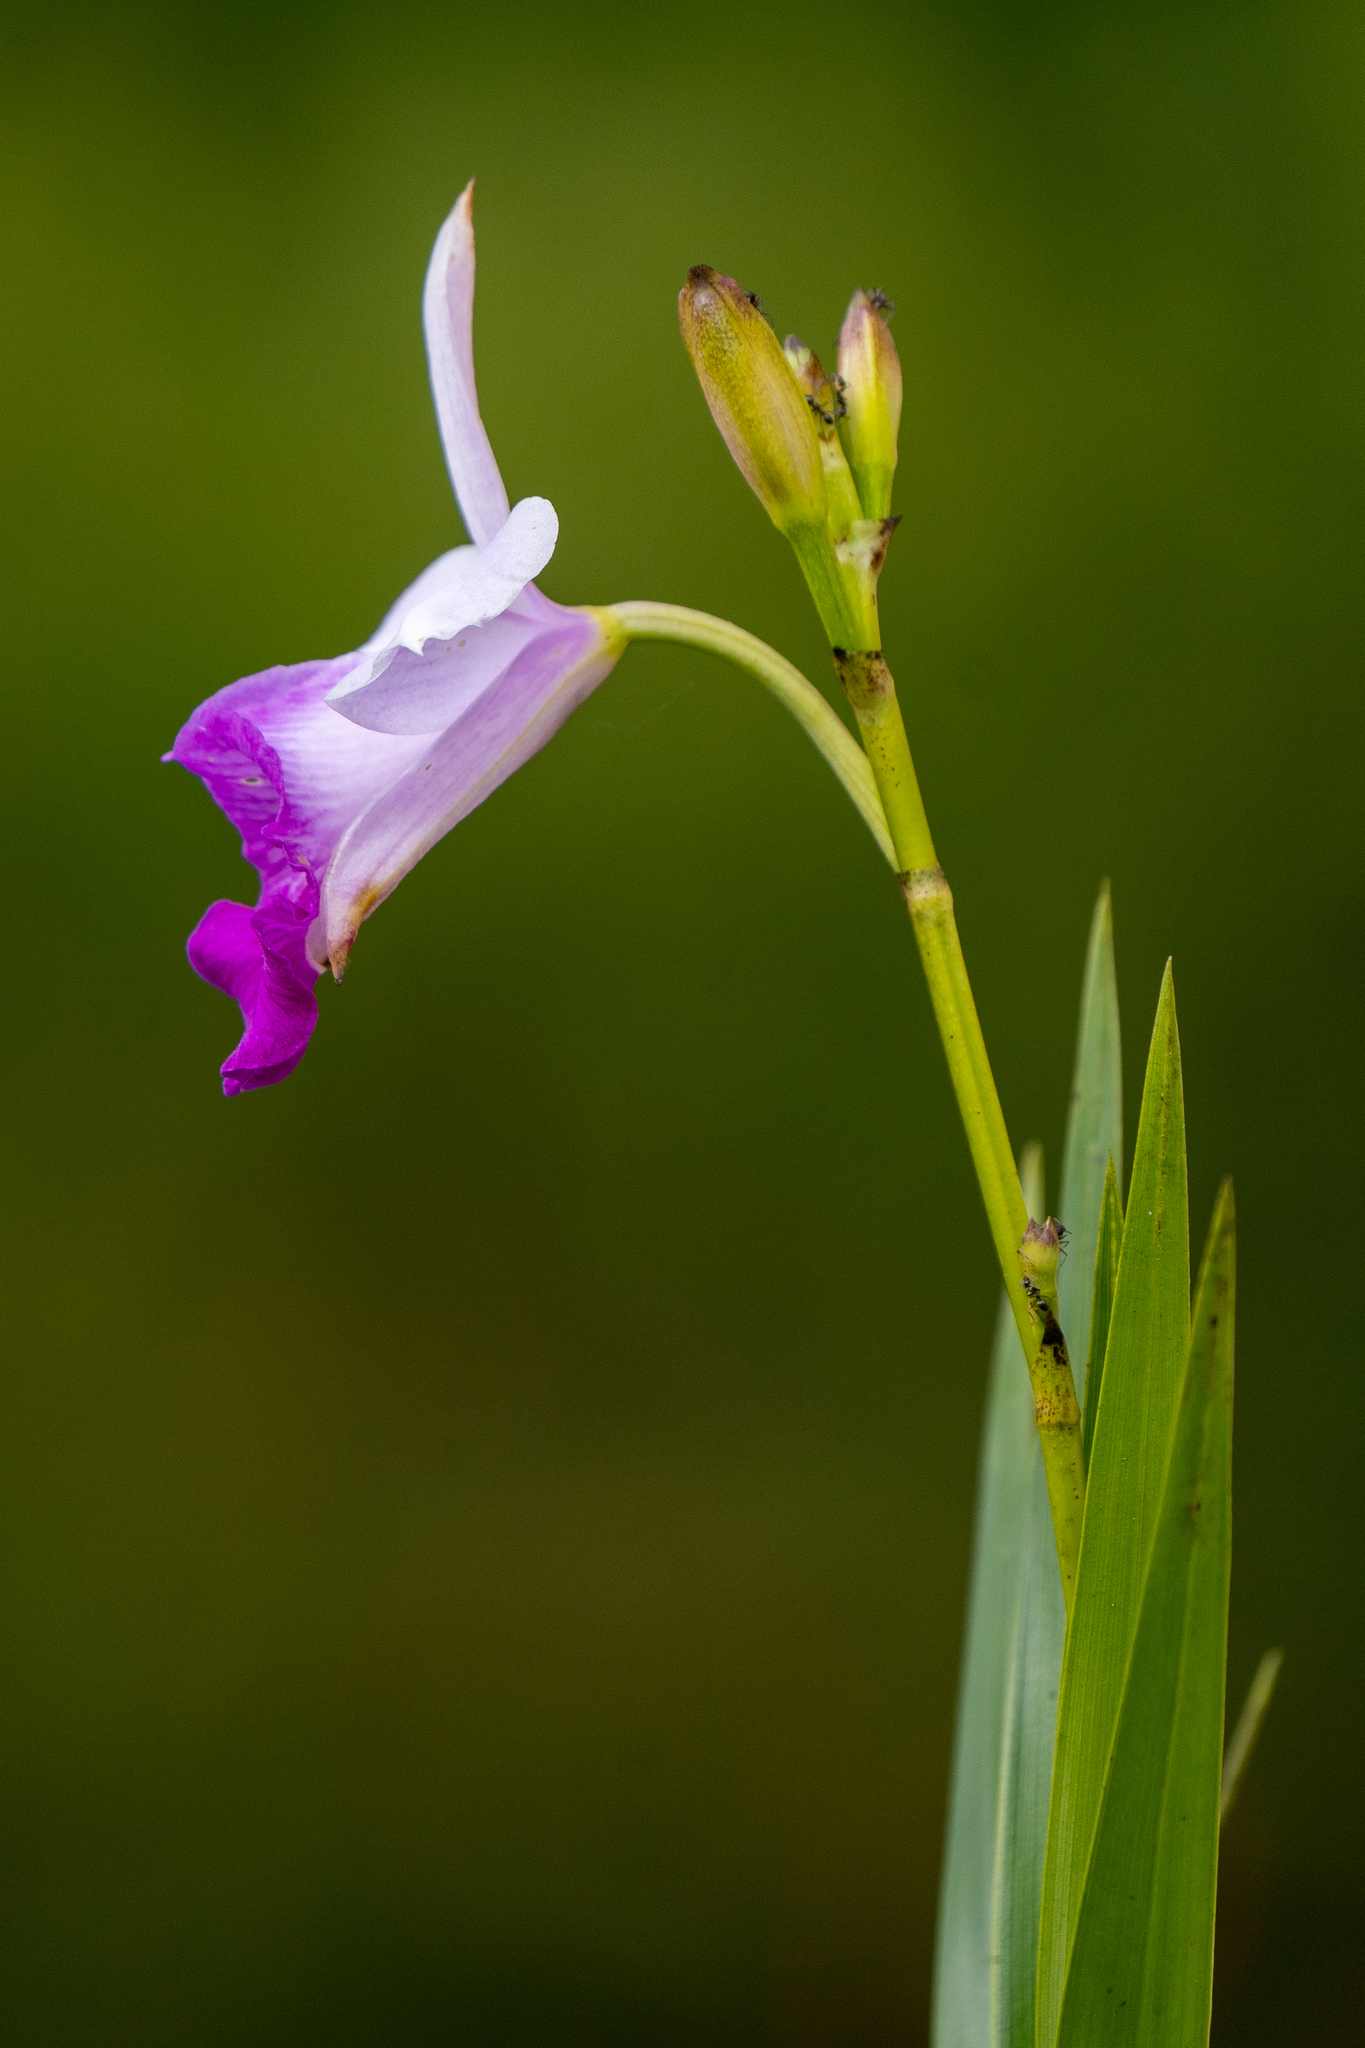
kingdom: Plantae
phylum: Tracheophyta
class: Liliopsida
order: Asparagales
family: Orchidaceae
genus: Arundina
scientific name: Arundina graminifolia
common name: Bamboo orchid
